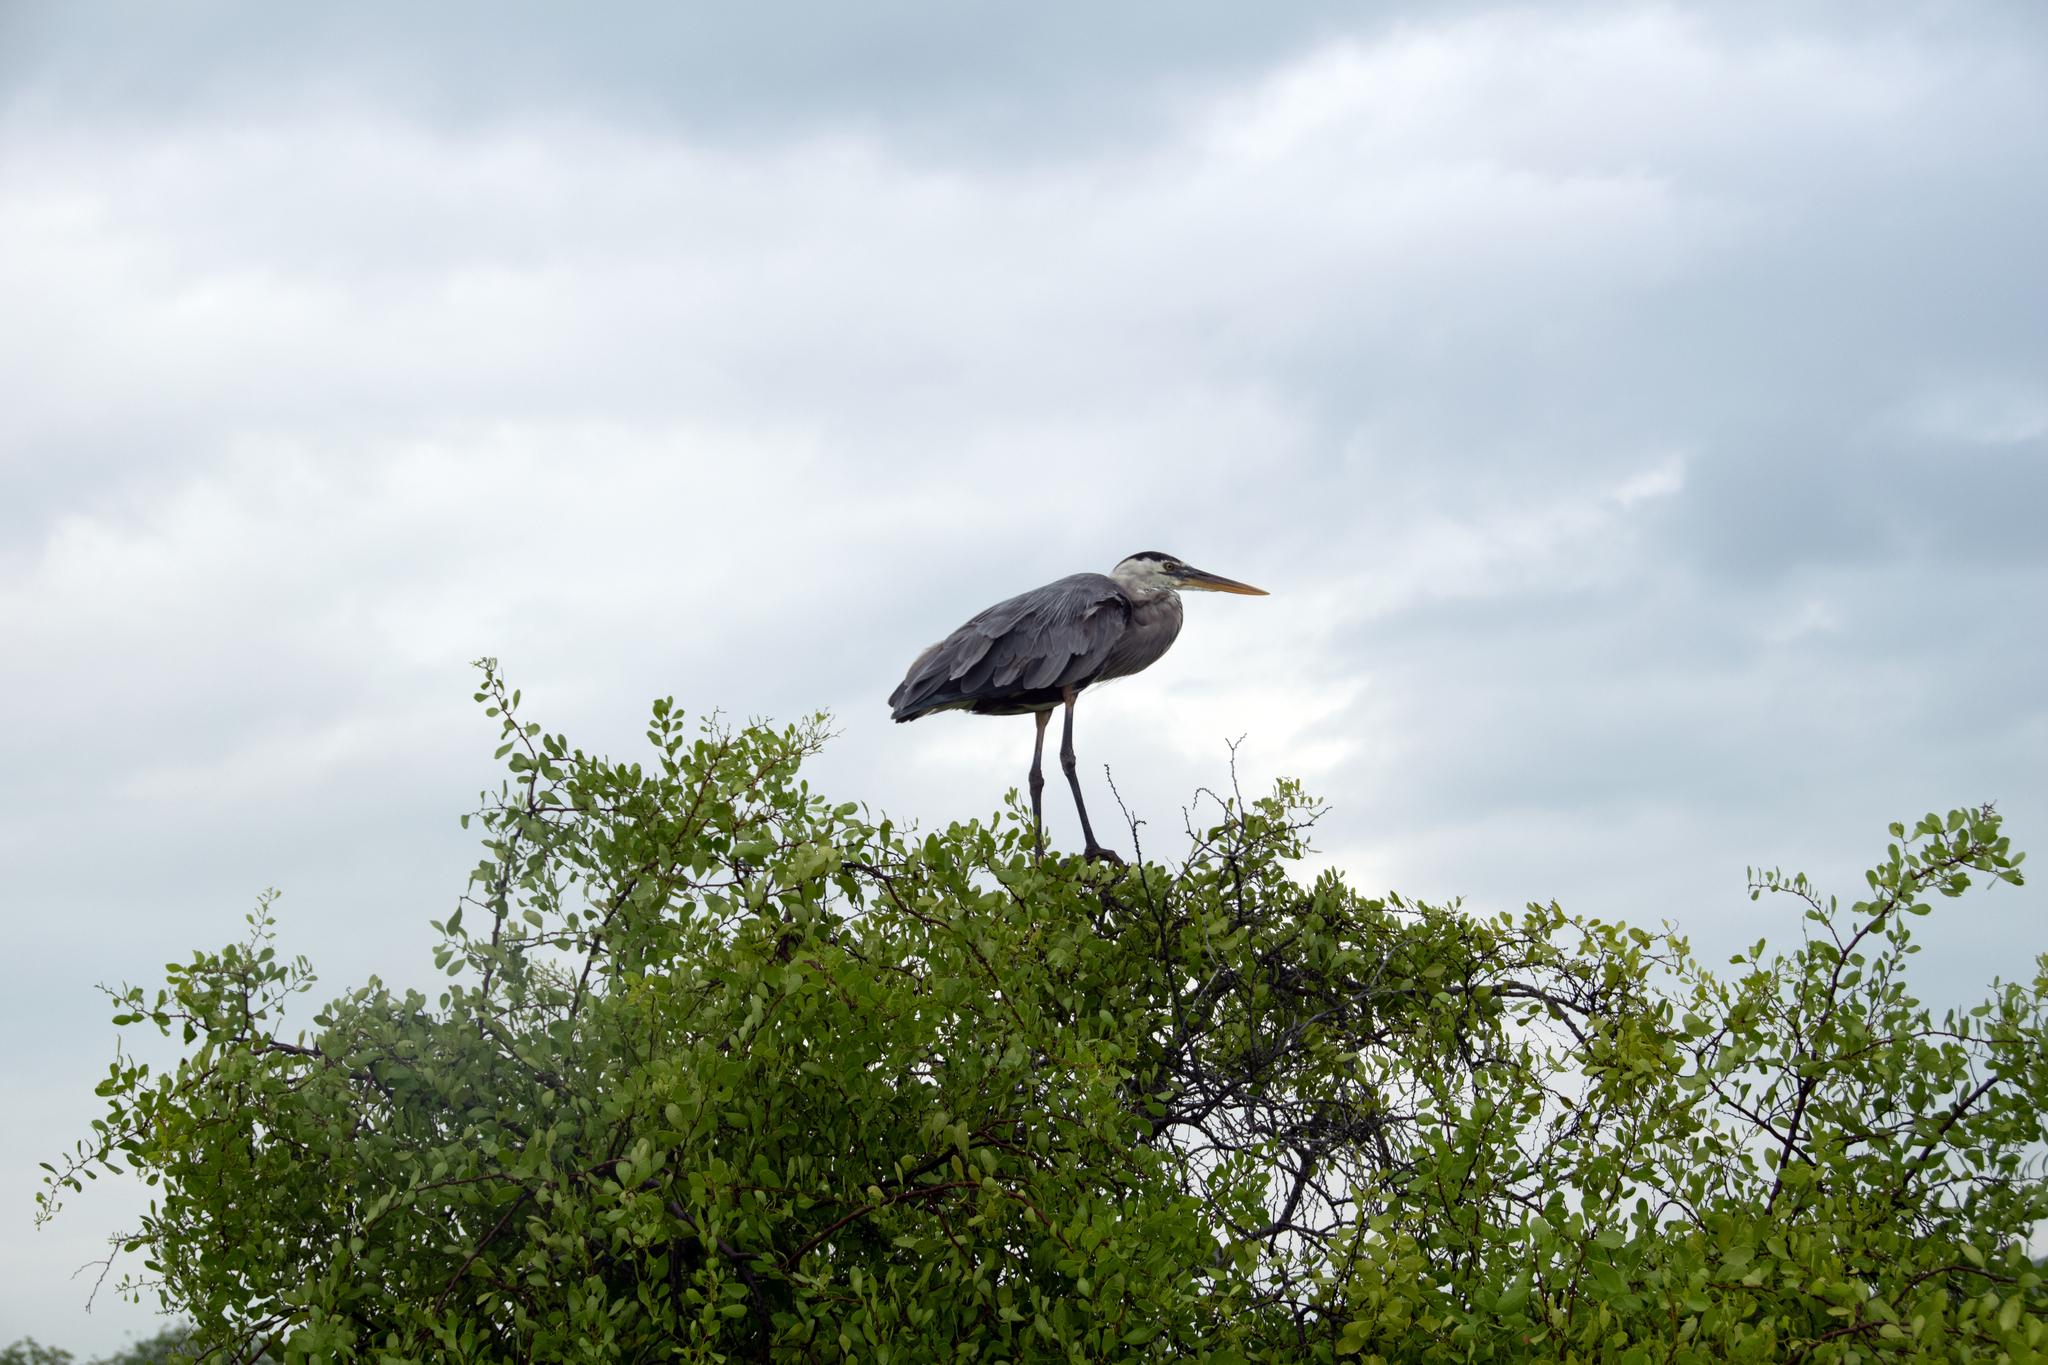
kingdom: Animalia
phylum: Chordata
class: Aves
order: Pelecaniformes
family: Ardeidae
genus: Ardea
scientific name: Ardea herodias
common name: Great blue heron
